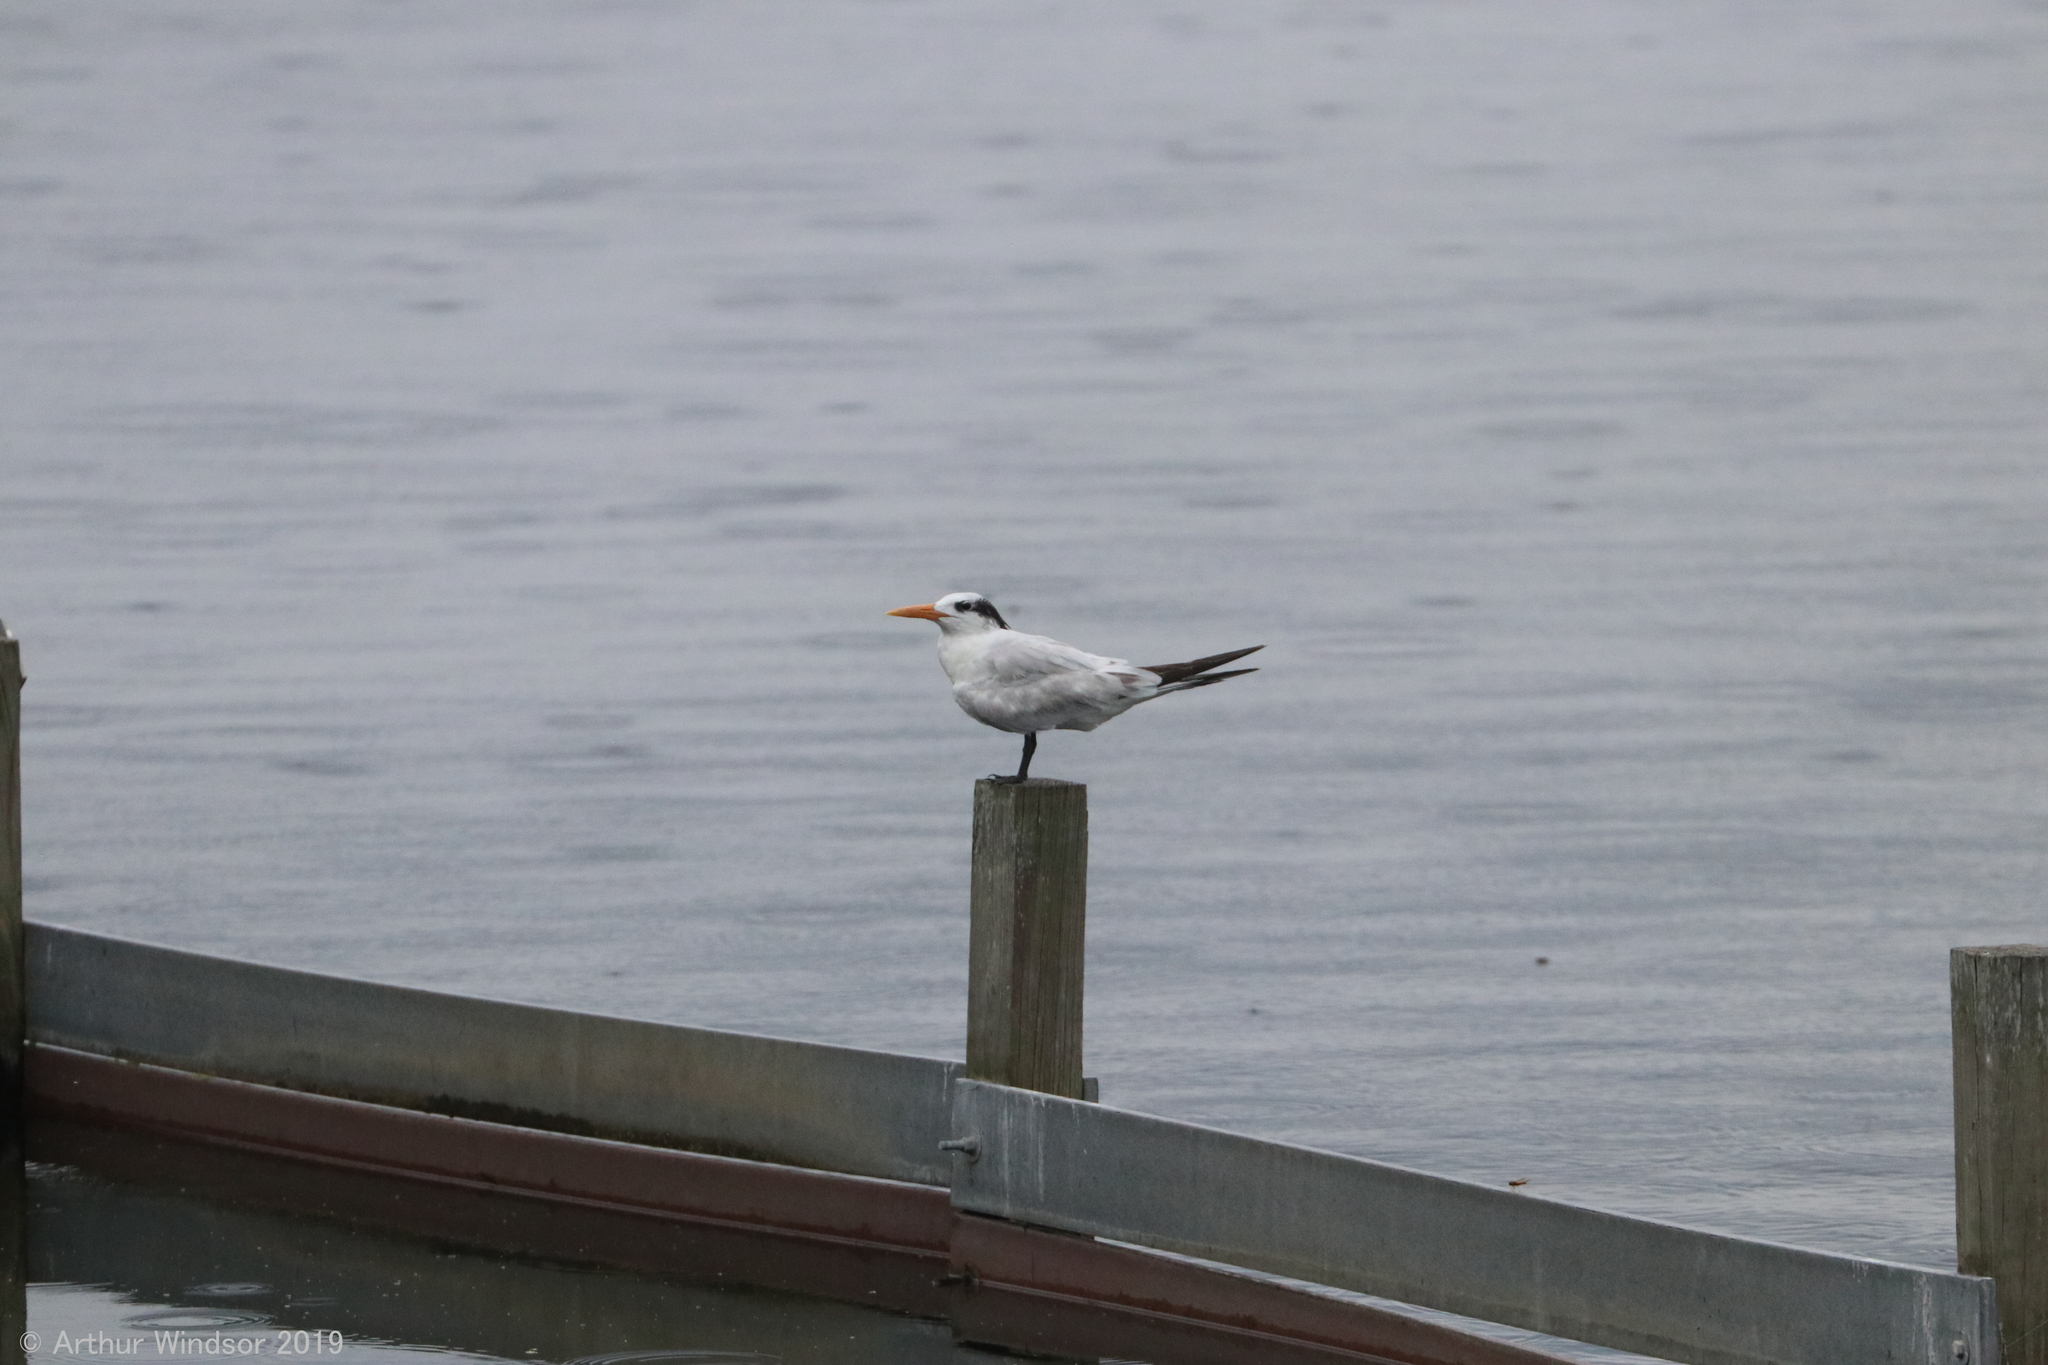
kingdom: Animalia
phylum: Chordata
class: Aves
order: Charadriiformes
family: Laridae
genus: Thalasseus
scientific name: Thalasseus maximus
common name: Royal tern
